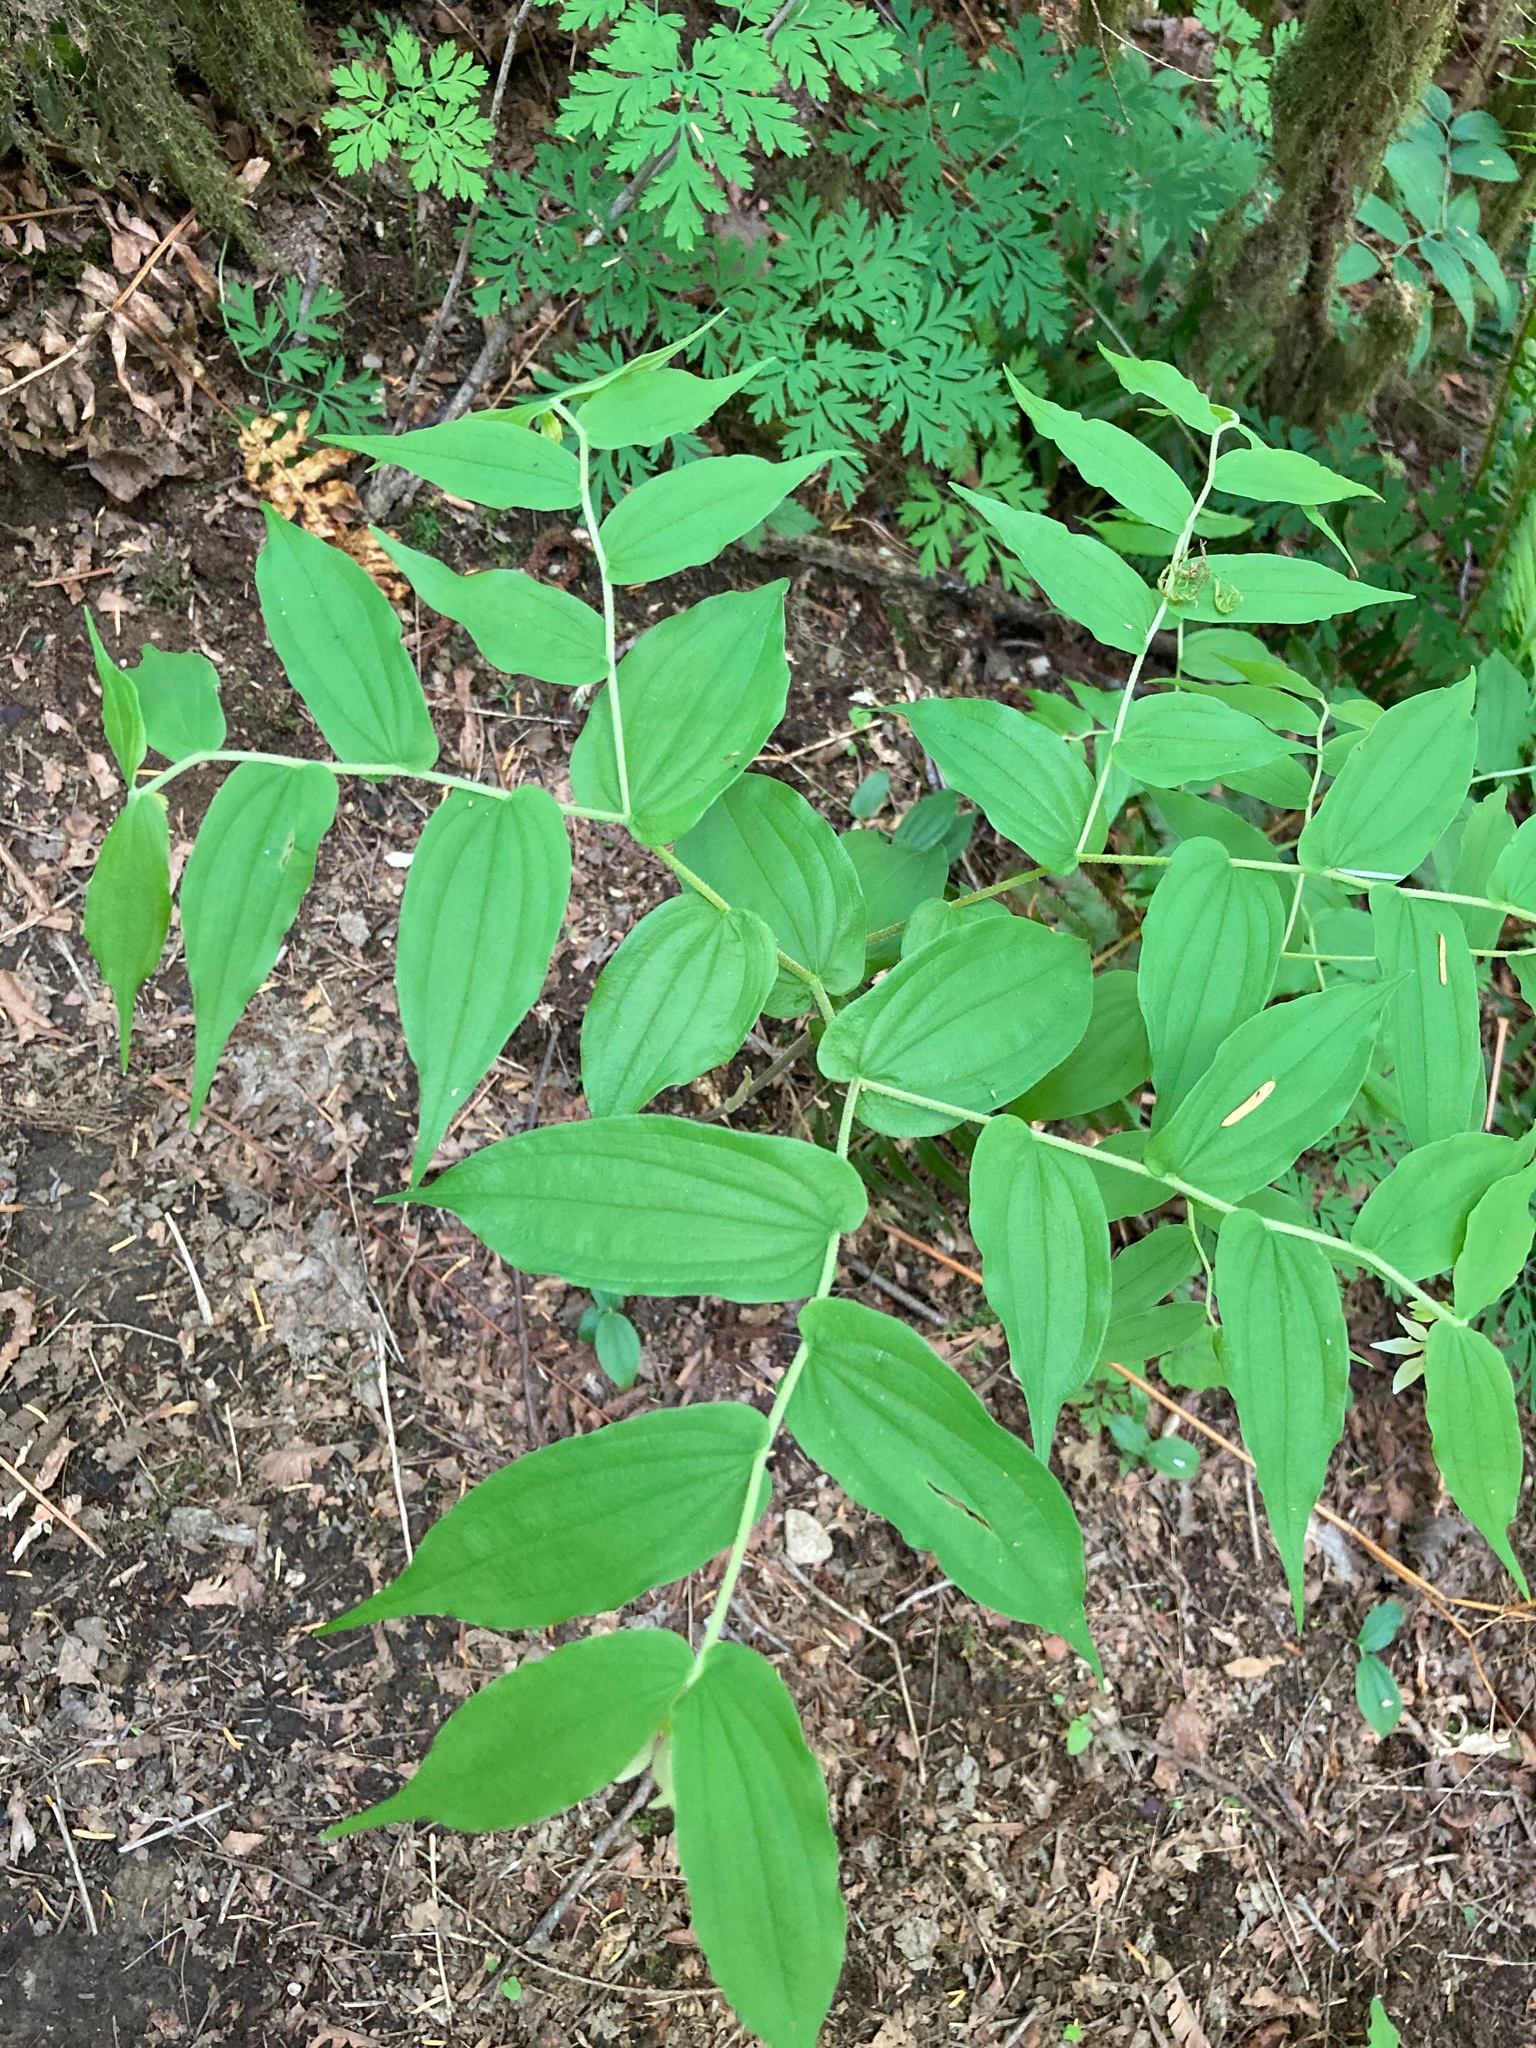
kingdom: Plantae
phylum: Tracheophyta
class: Liliopsida
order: Liliales
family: Liliaceae
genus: Prosartes
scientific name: Prosartes hookeri
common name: Fairy-bells
